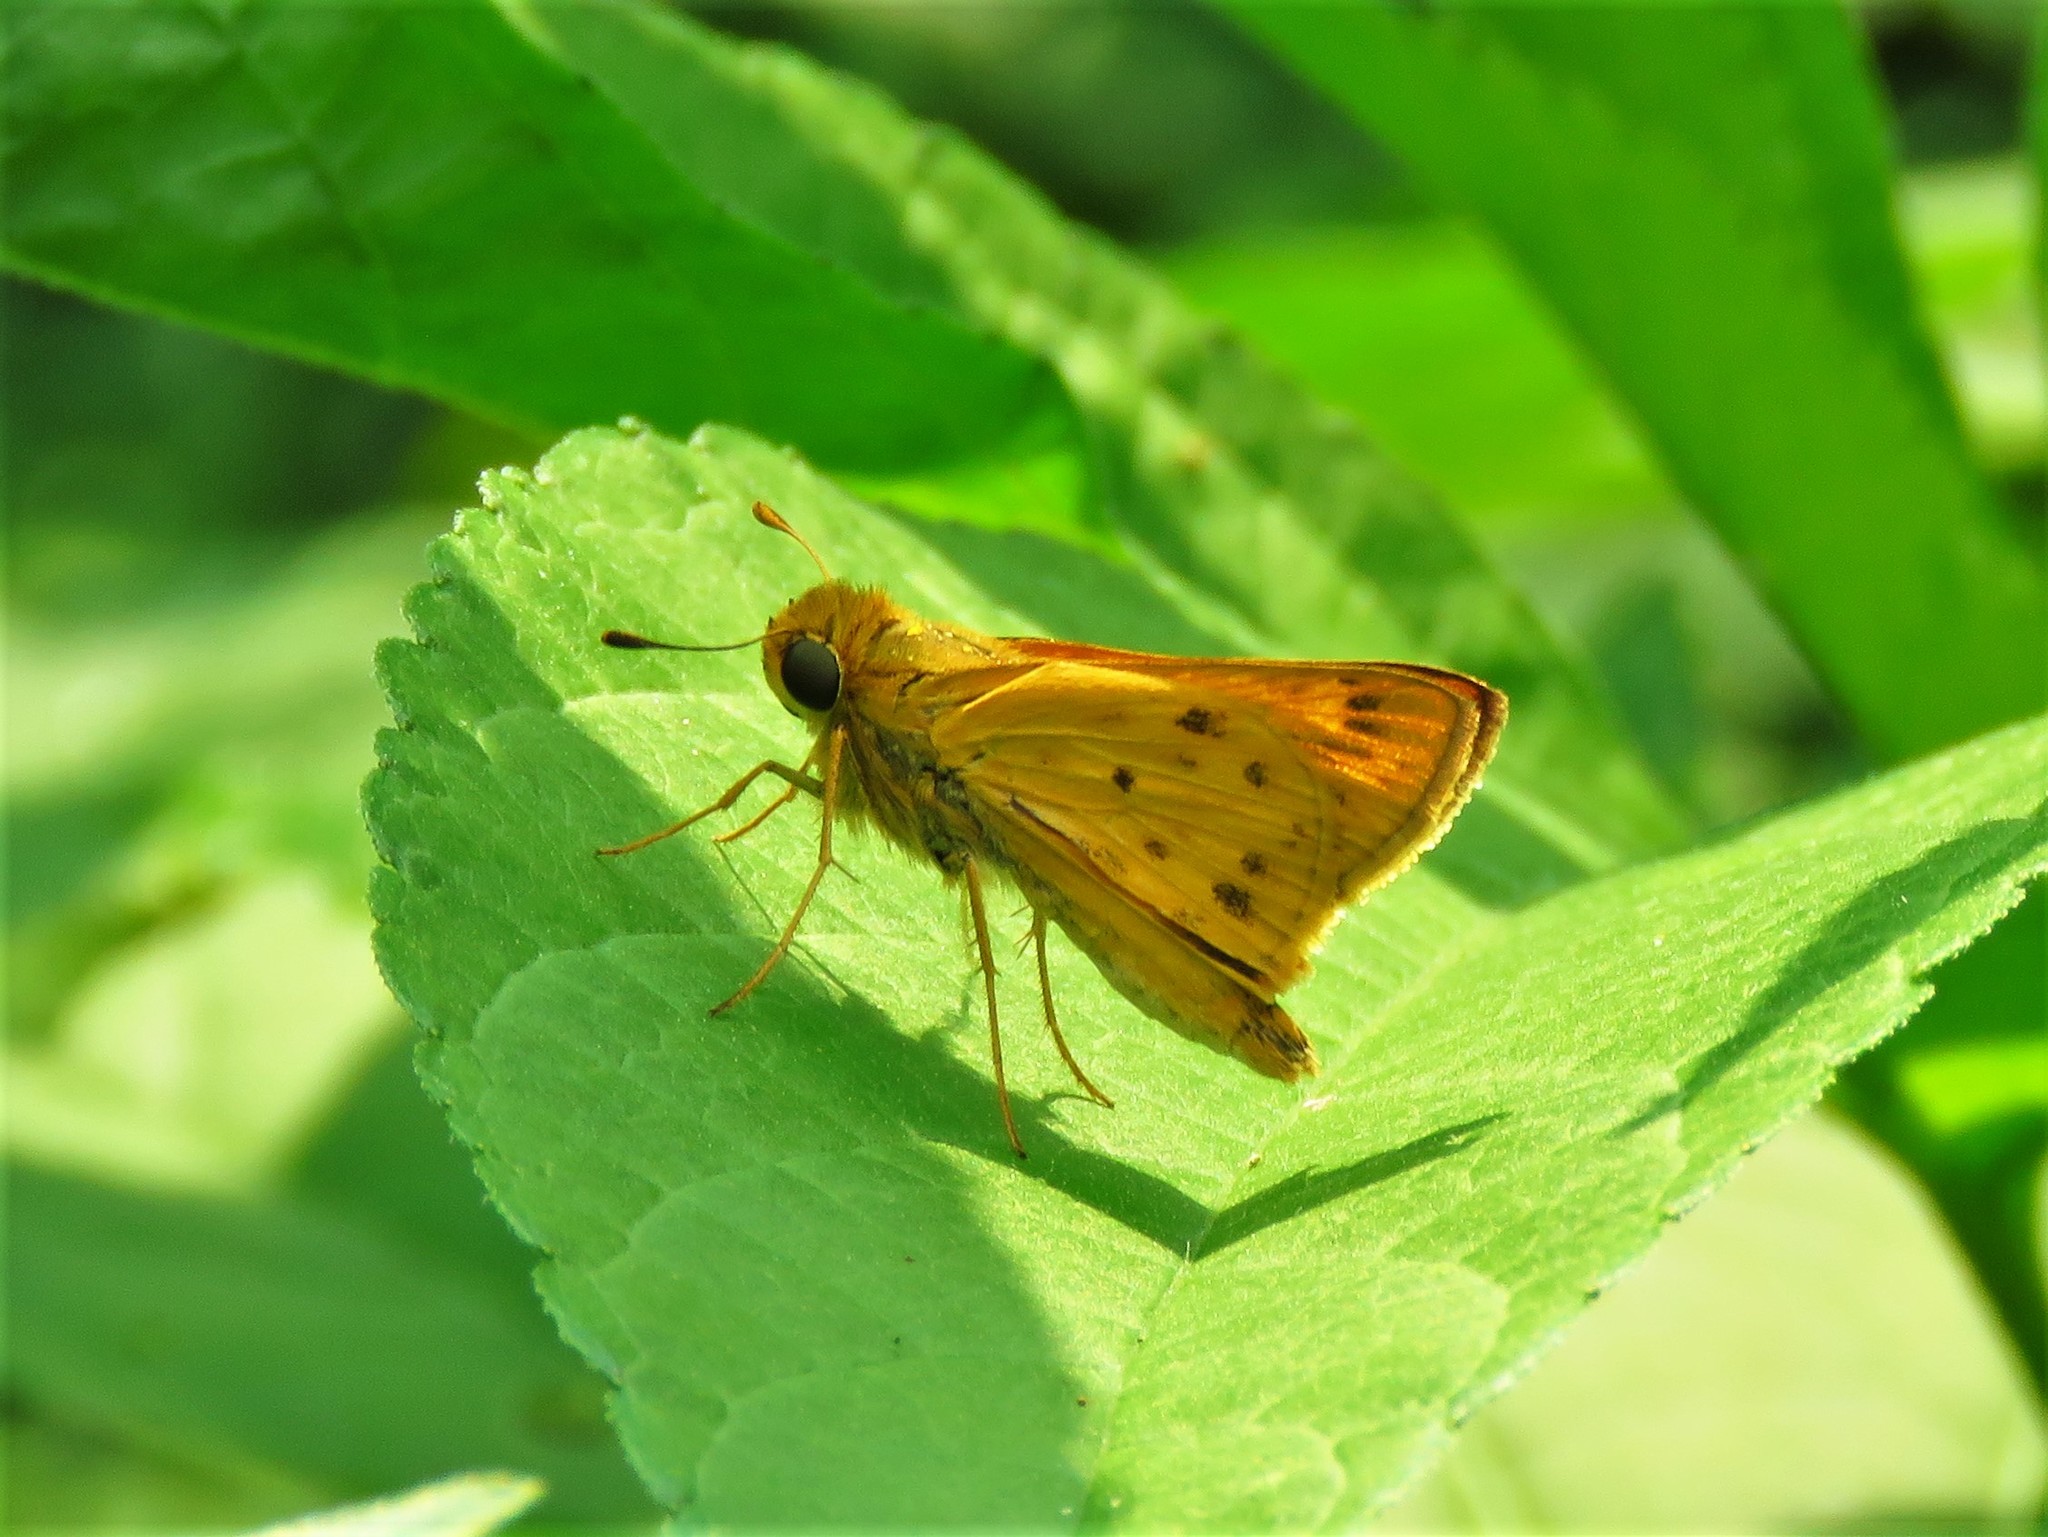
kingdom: Animalia
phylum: Arthropoda
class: Insecta
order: Lepidoptera
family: Hesperiidae
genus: Hylephila
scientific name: Hylephila phyleus
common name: Fiery skipper
